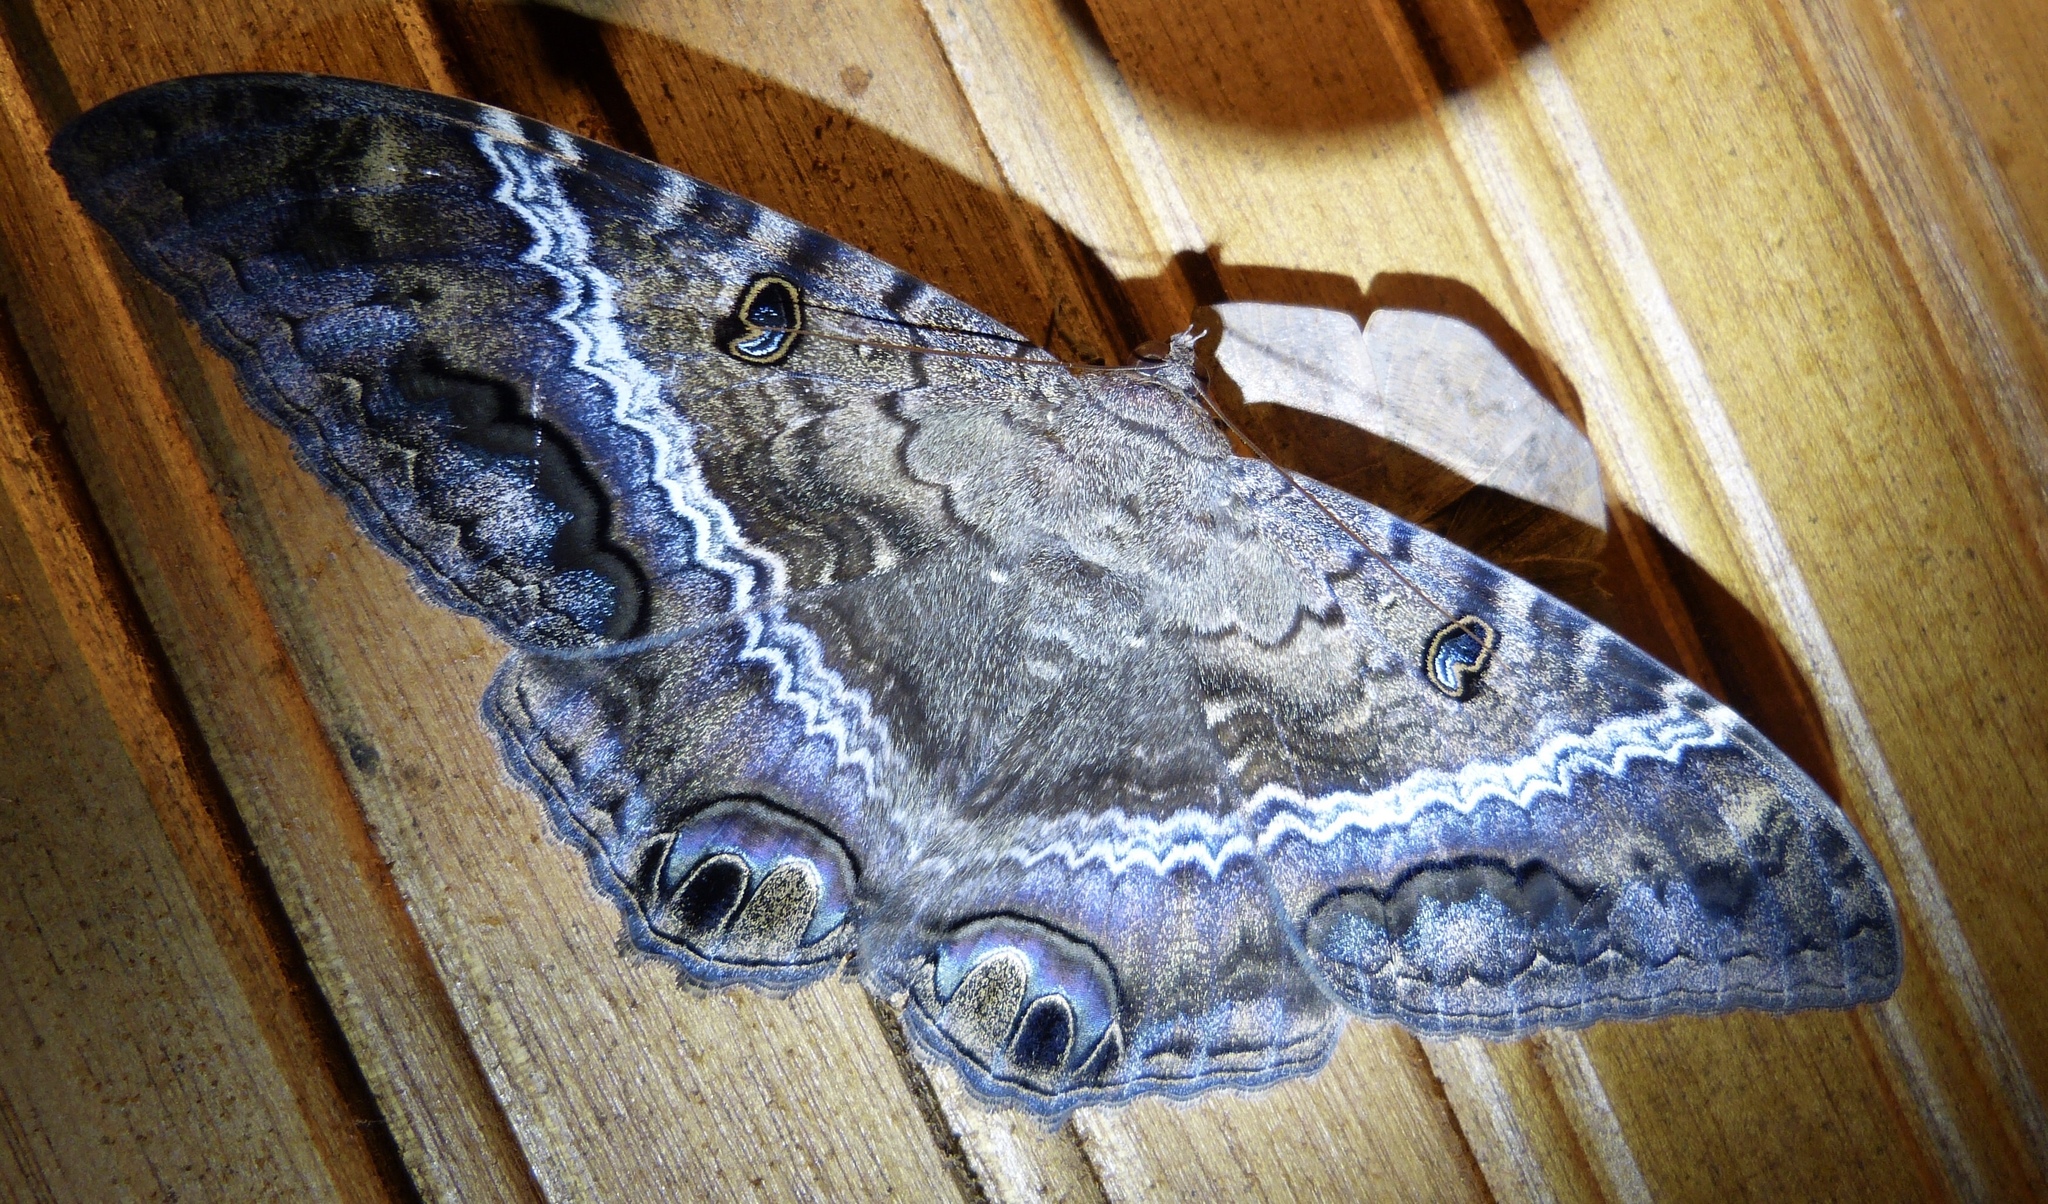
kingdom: Animalia
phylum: Arthropoda
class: Insecta
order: Lepidoptera
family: Erebidae
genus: Ascalapha
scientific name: Ascalapha odorata
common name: Black witch
